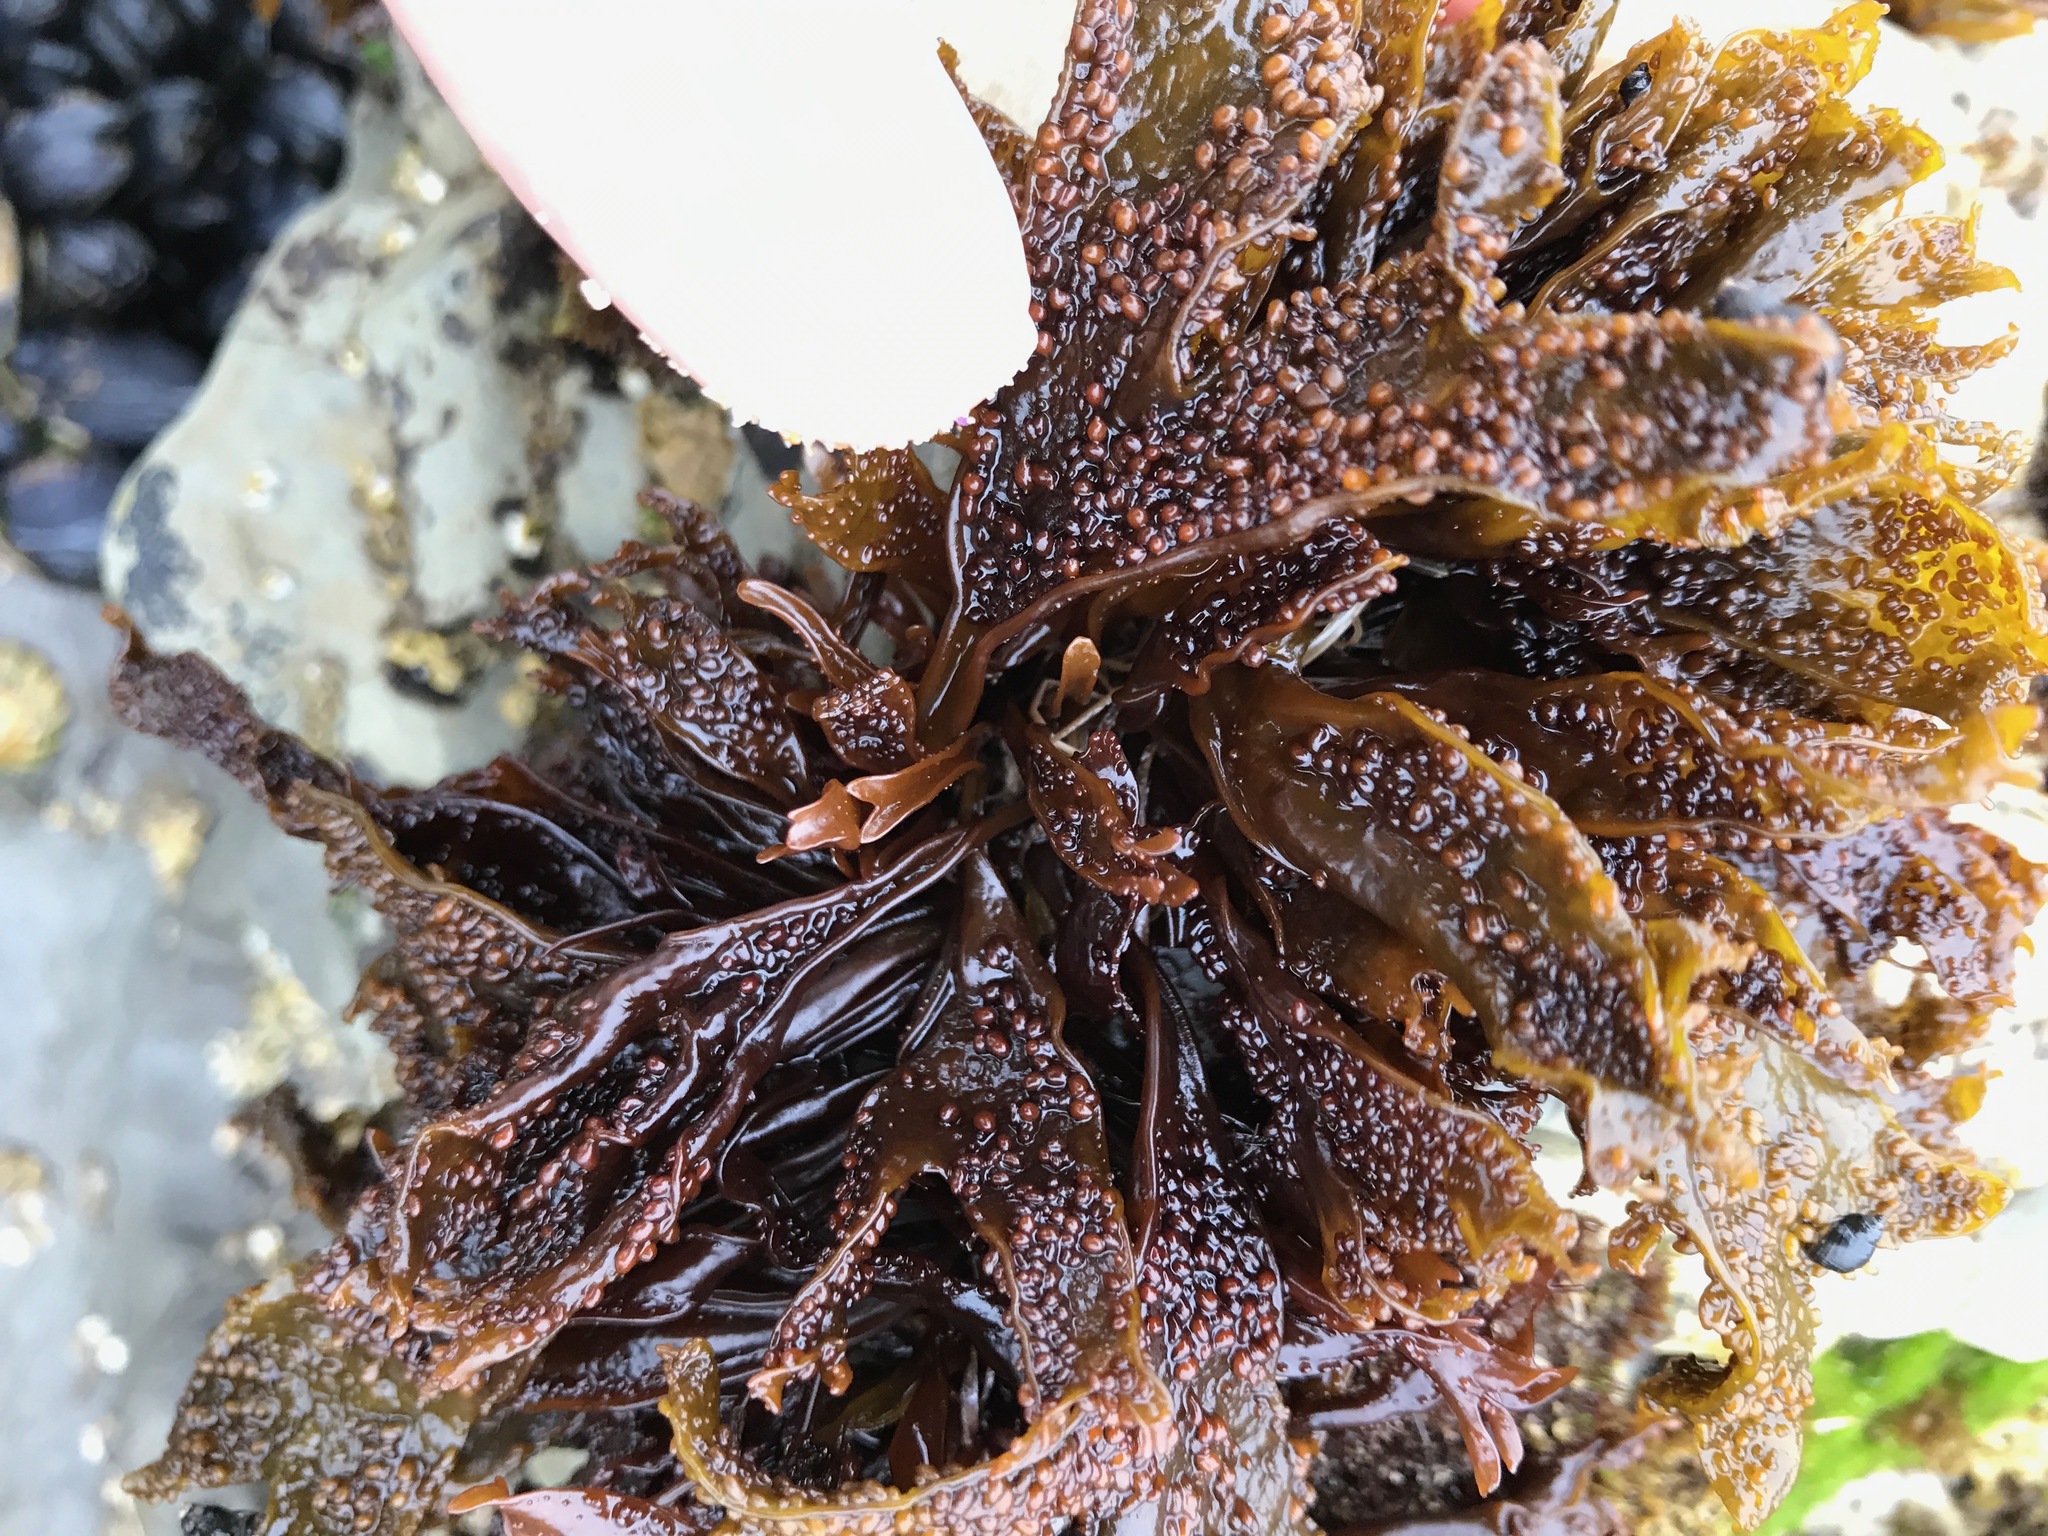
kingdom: Plantae
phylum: Rhodophyta
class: Florideophyceae
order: Gigartinales
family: Phyllophoraceae
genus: Mastocarpus
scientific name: Mastocarpus papillatus
